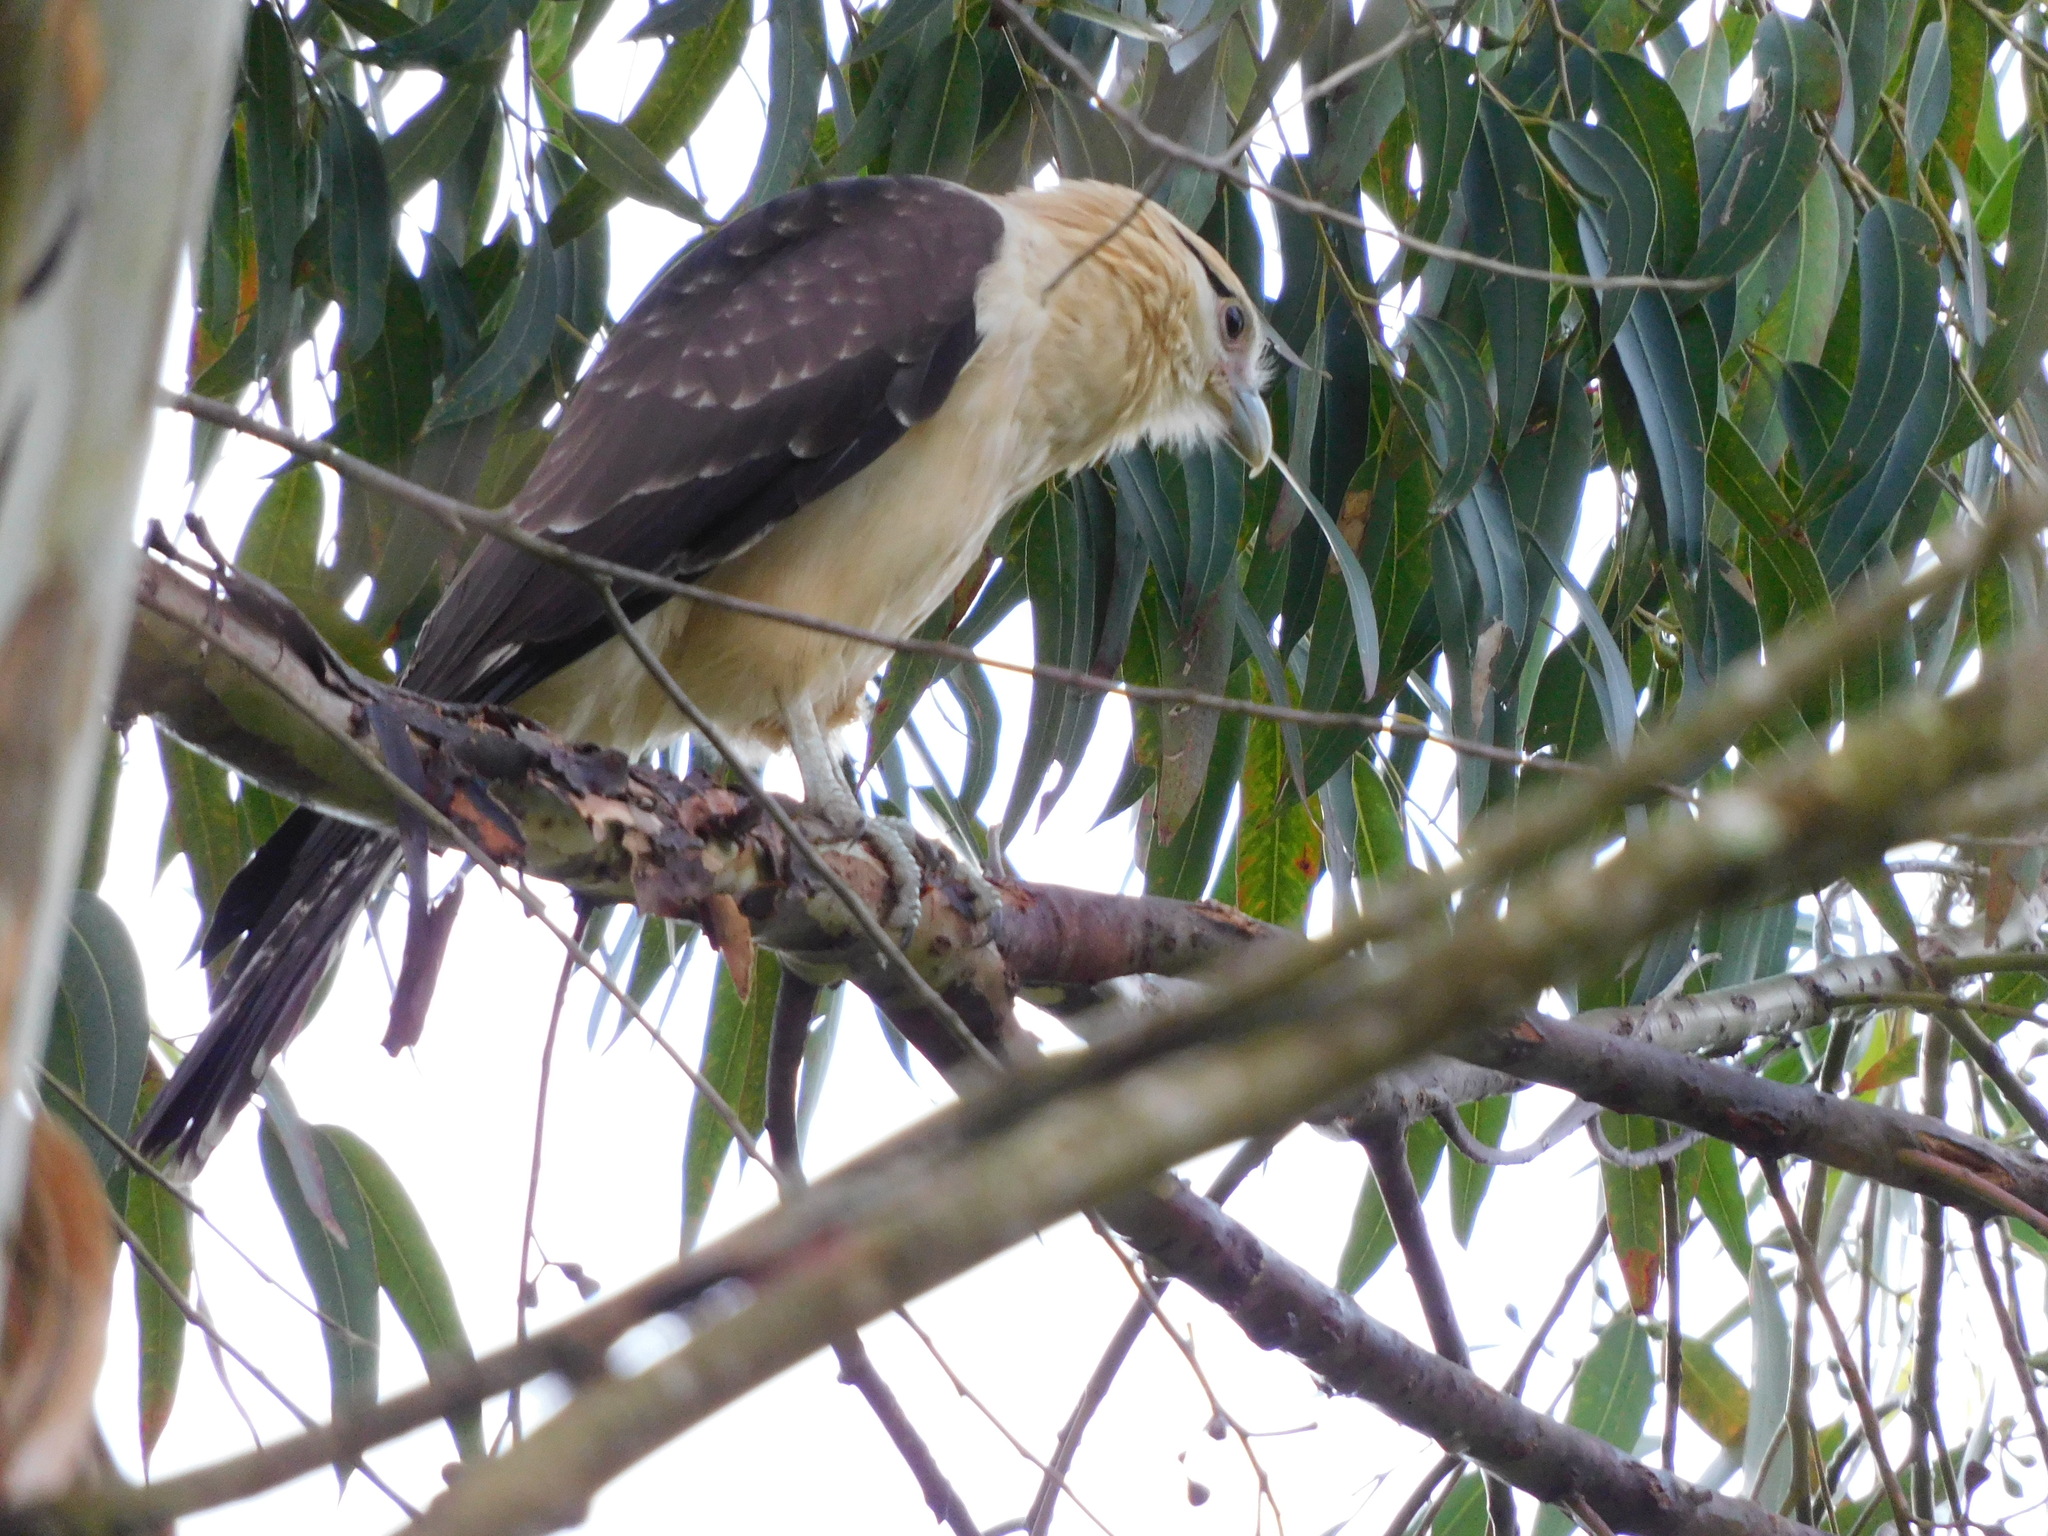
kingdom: Animalia
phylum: Chordata
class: Aves
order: Falconiformes
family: Falconidae
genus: Daptrius
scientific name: Daptrius
